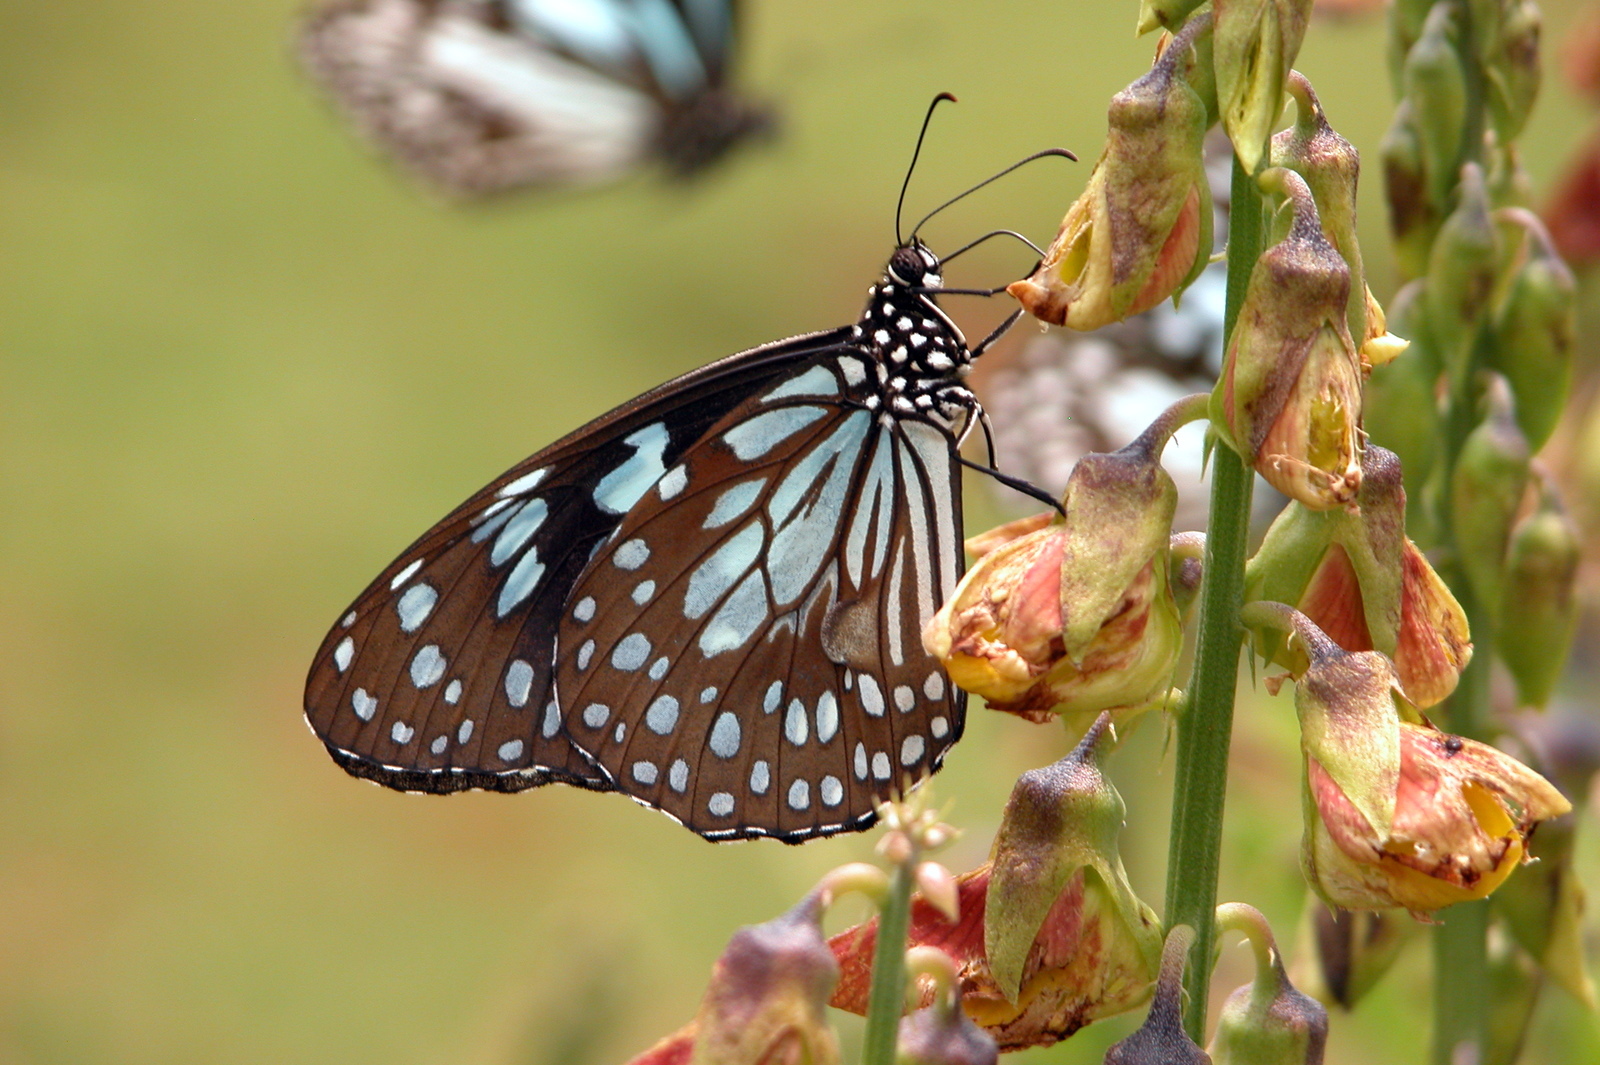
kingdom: Animalia
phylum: Arthropoda
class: Insecta
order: Lepidoptera
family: Nymphalidae
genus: Tirumala
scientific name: Tirumala limniace
